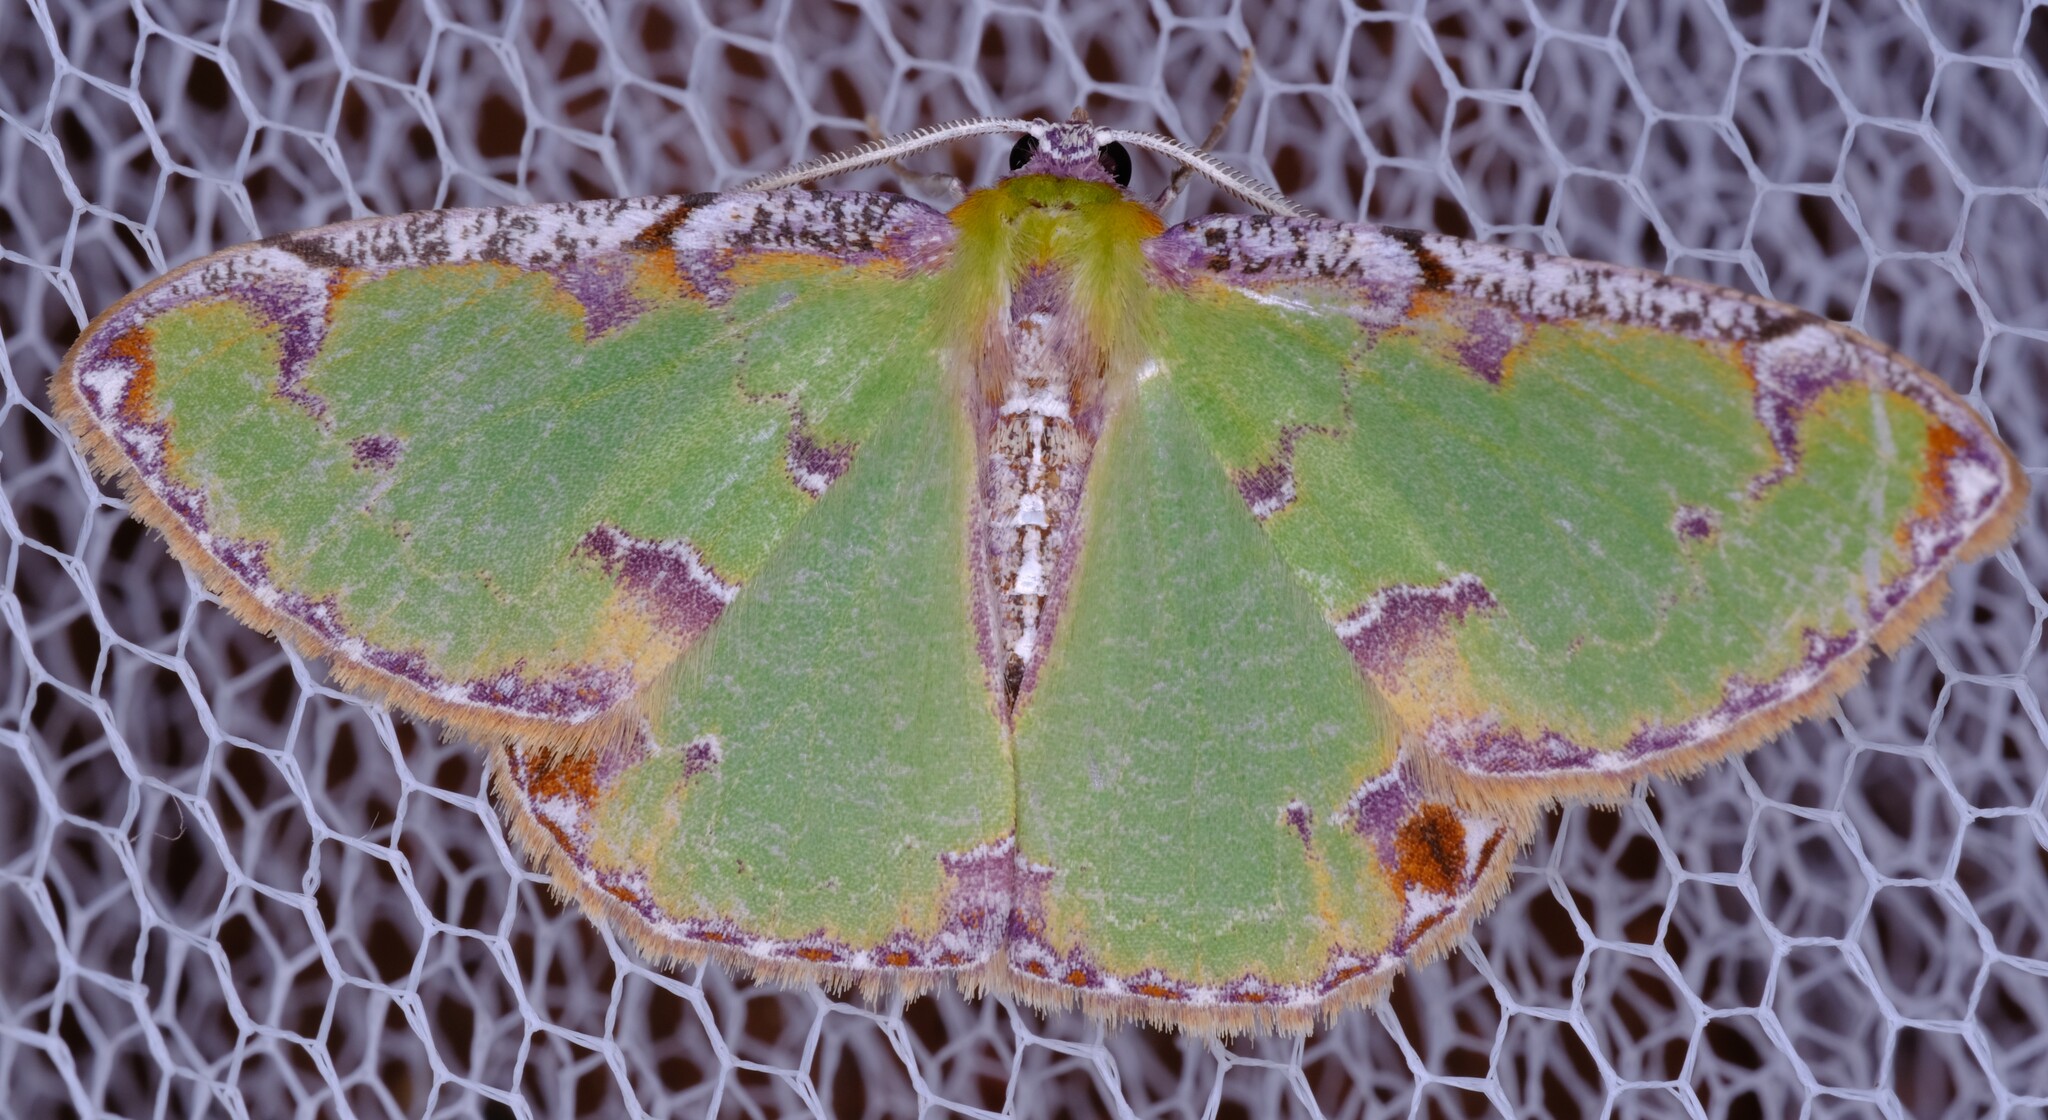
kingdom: Animalia
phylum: Arthropoda
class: Insecta
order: Lepidoptera
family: Geometridae
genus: Eucyclodes
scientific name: Eucyclodes buprestaria
